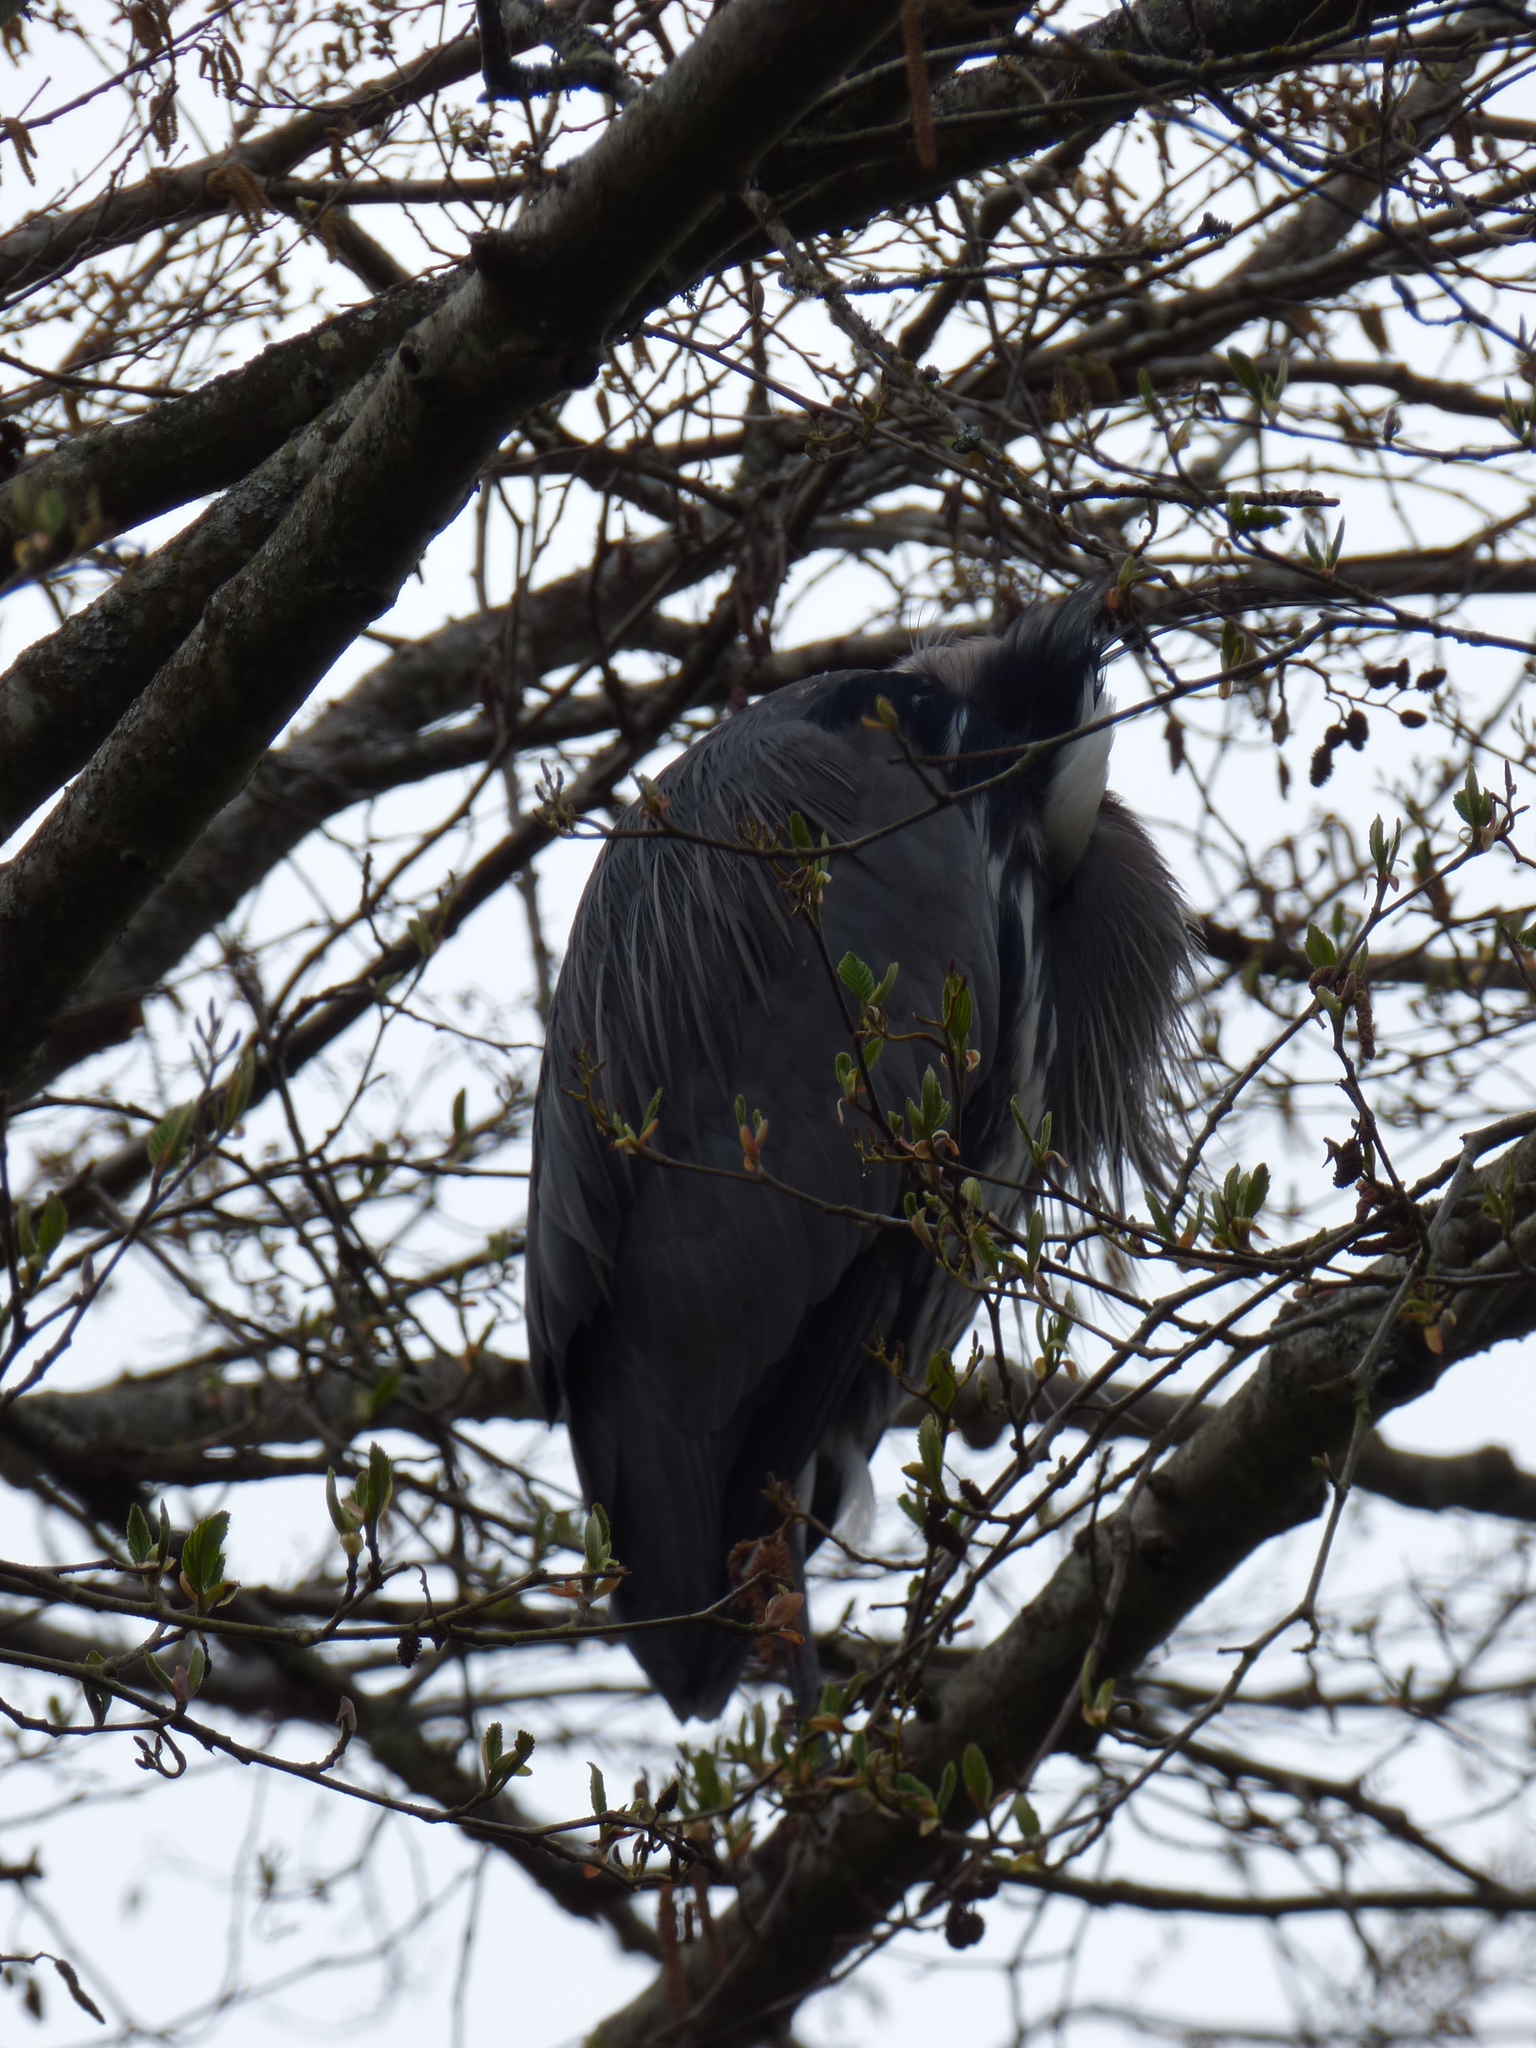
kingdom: Animalia
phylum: Chordata
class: Aves
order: Pelecaniformes
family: Ardeidae
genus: Ardea
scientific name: Ardea herodias
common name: Great blue heron
